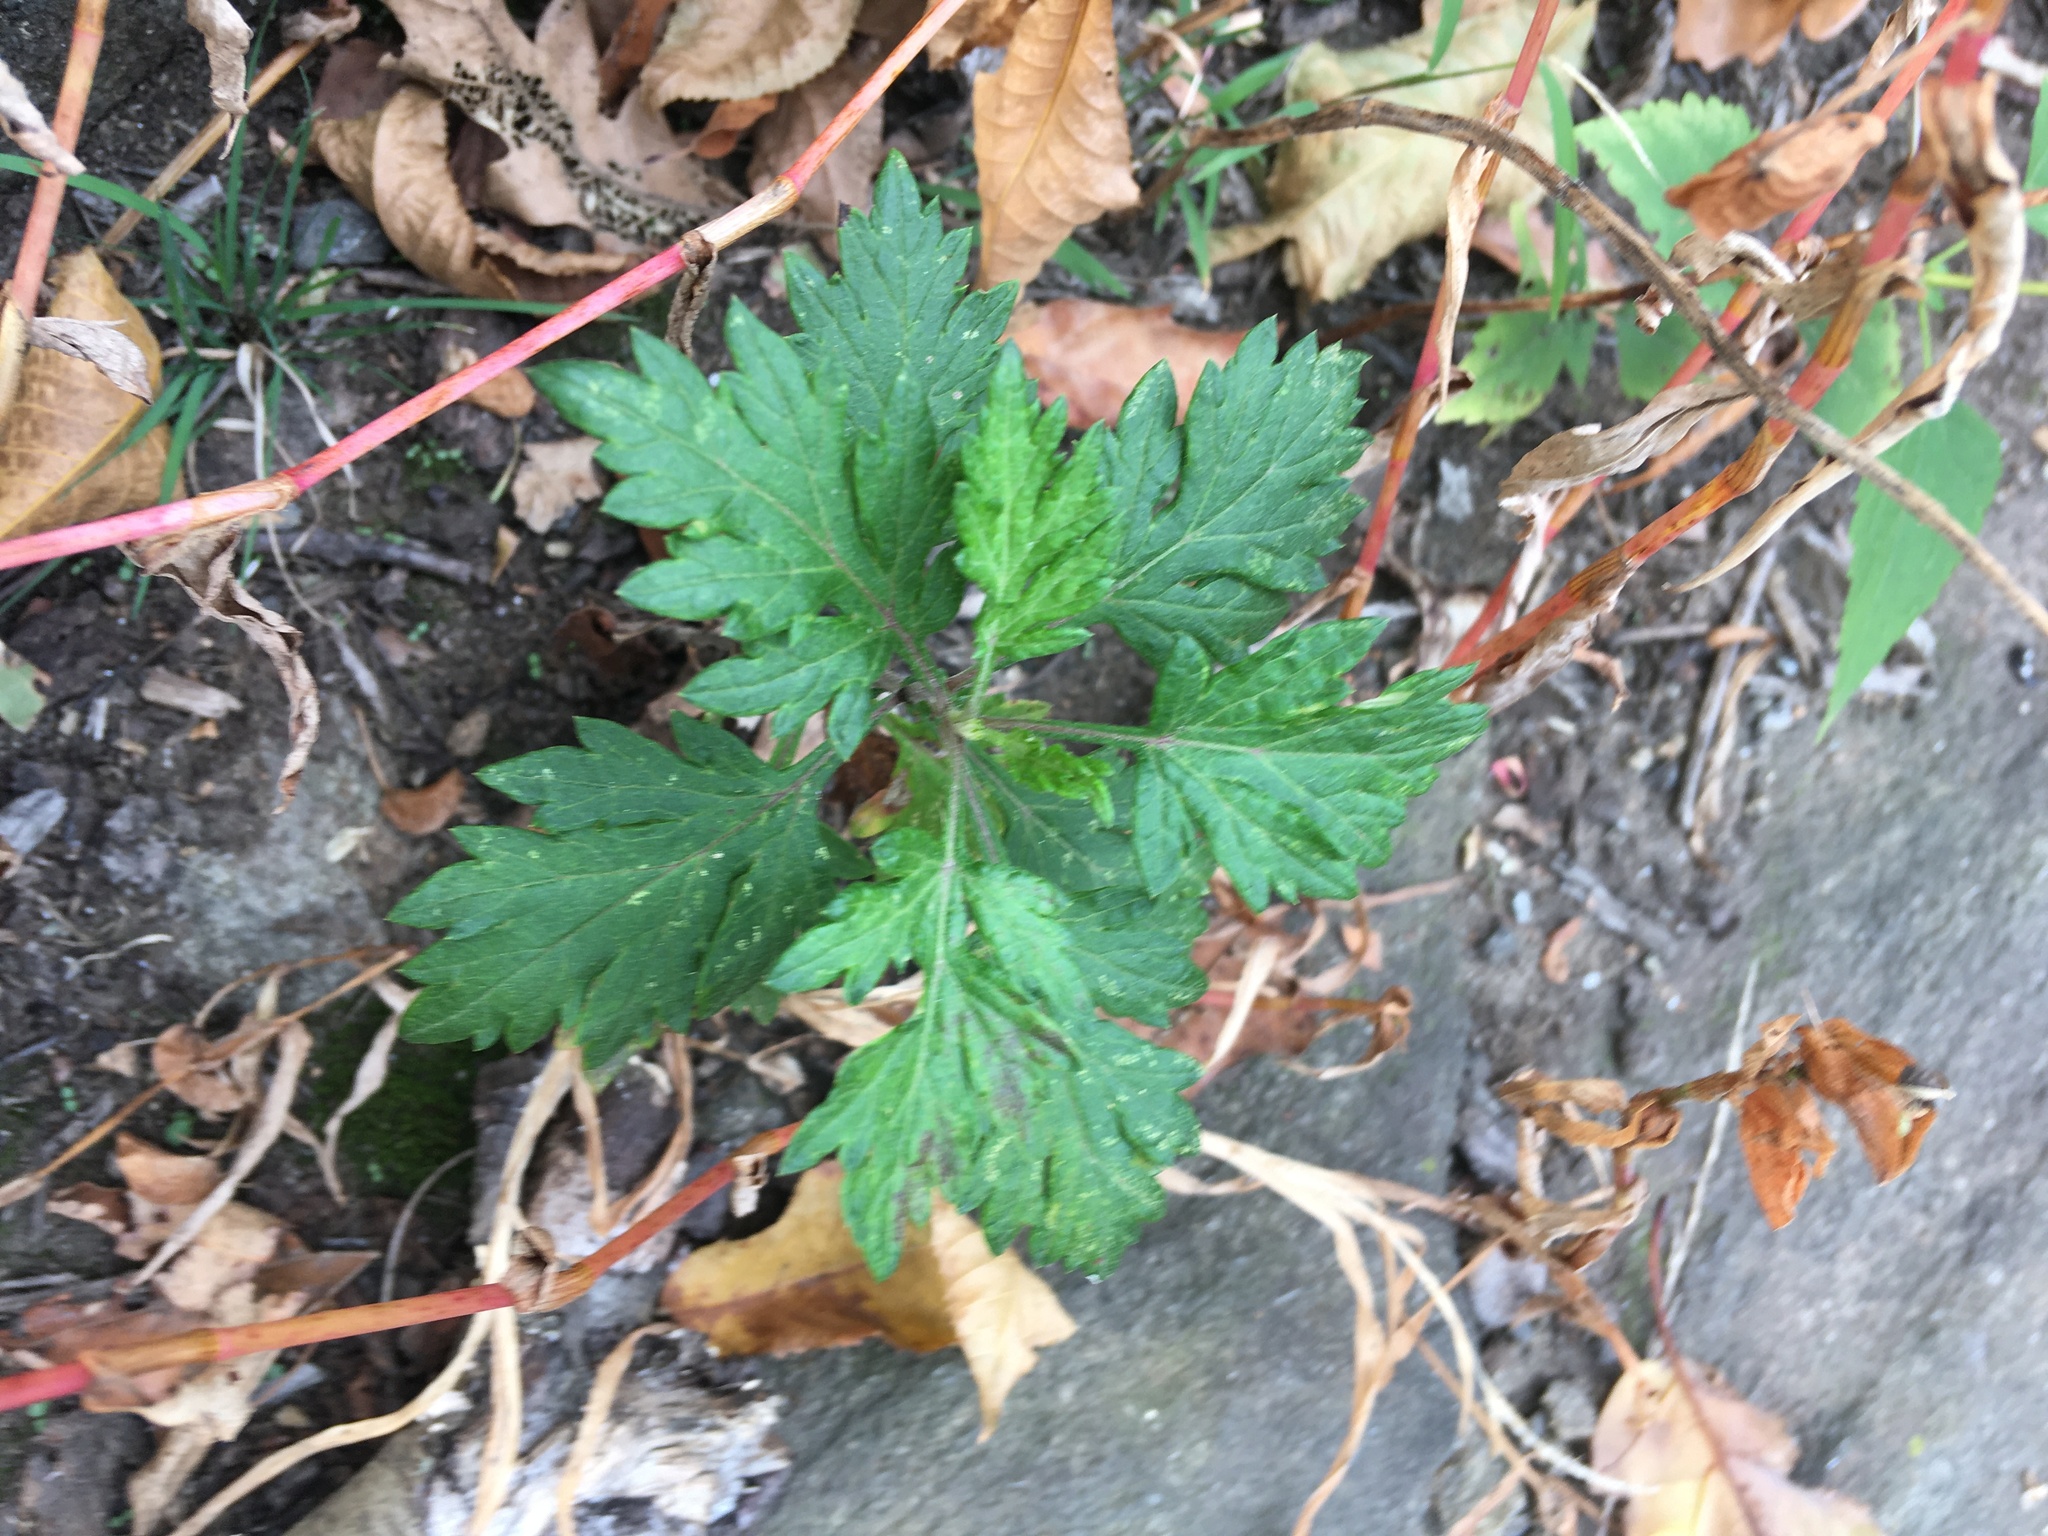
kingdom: Plantae
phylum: Tracheophyta
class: Magnoliopsida
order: Asterales
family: Asteraceae
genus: Artemisia
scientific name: Artemisia vulgaris
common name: Mugwort
